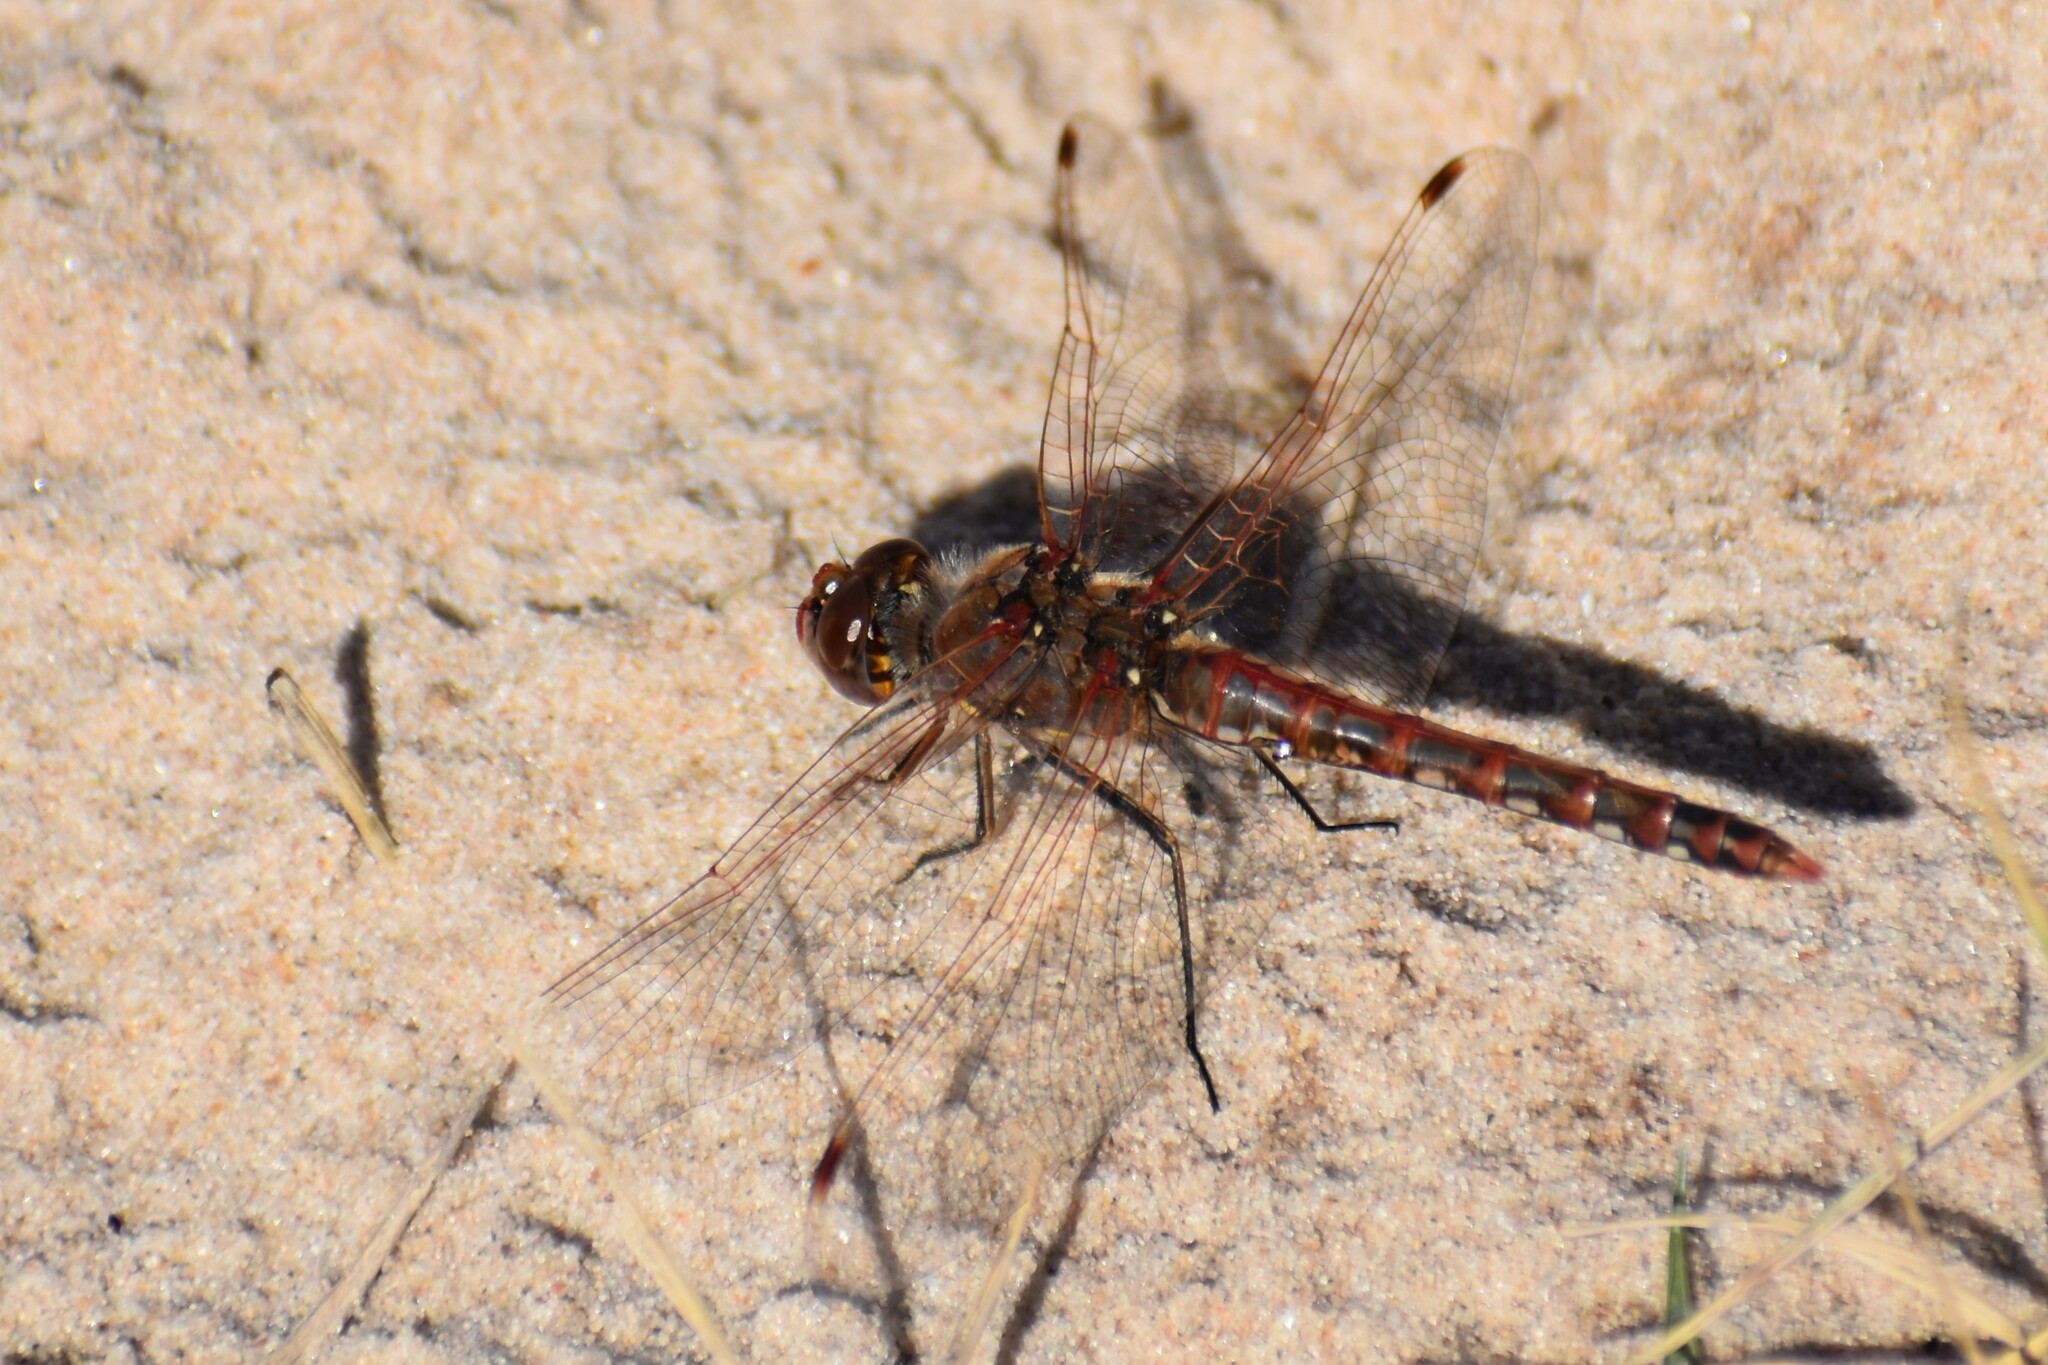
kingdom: Animalia
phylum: Arthropoda
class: Insecta
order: Odonata
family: Libellulidae
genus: Sympetrum
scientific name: Sympetrum corruptum
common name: Variegated meadowhawk
